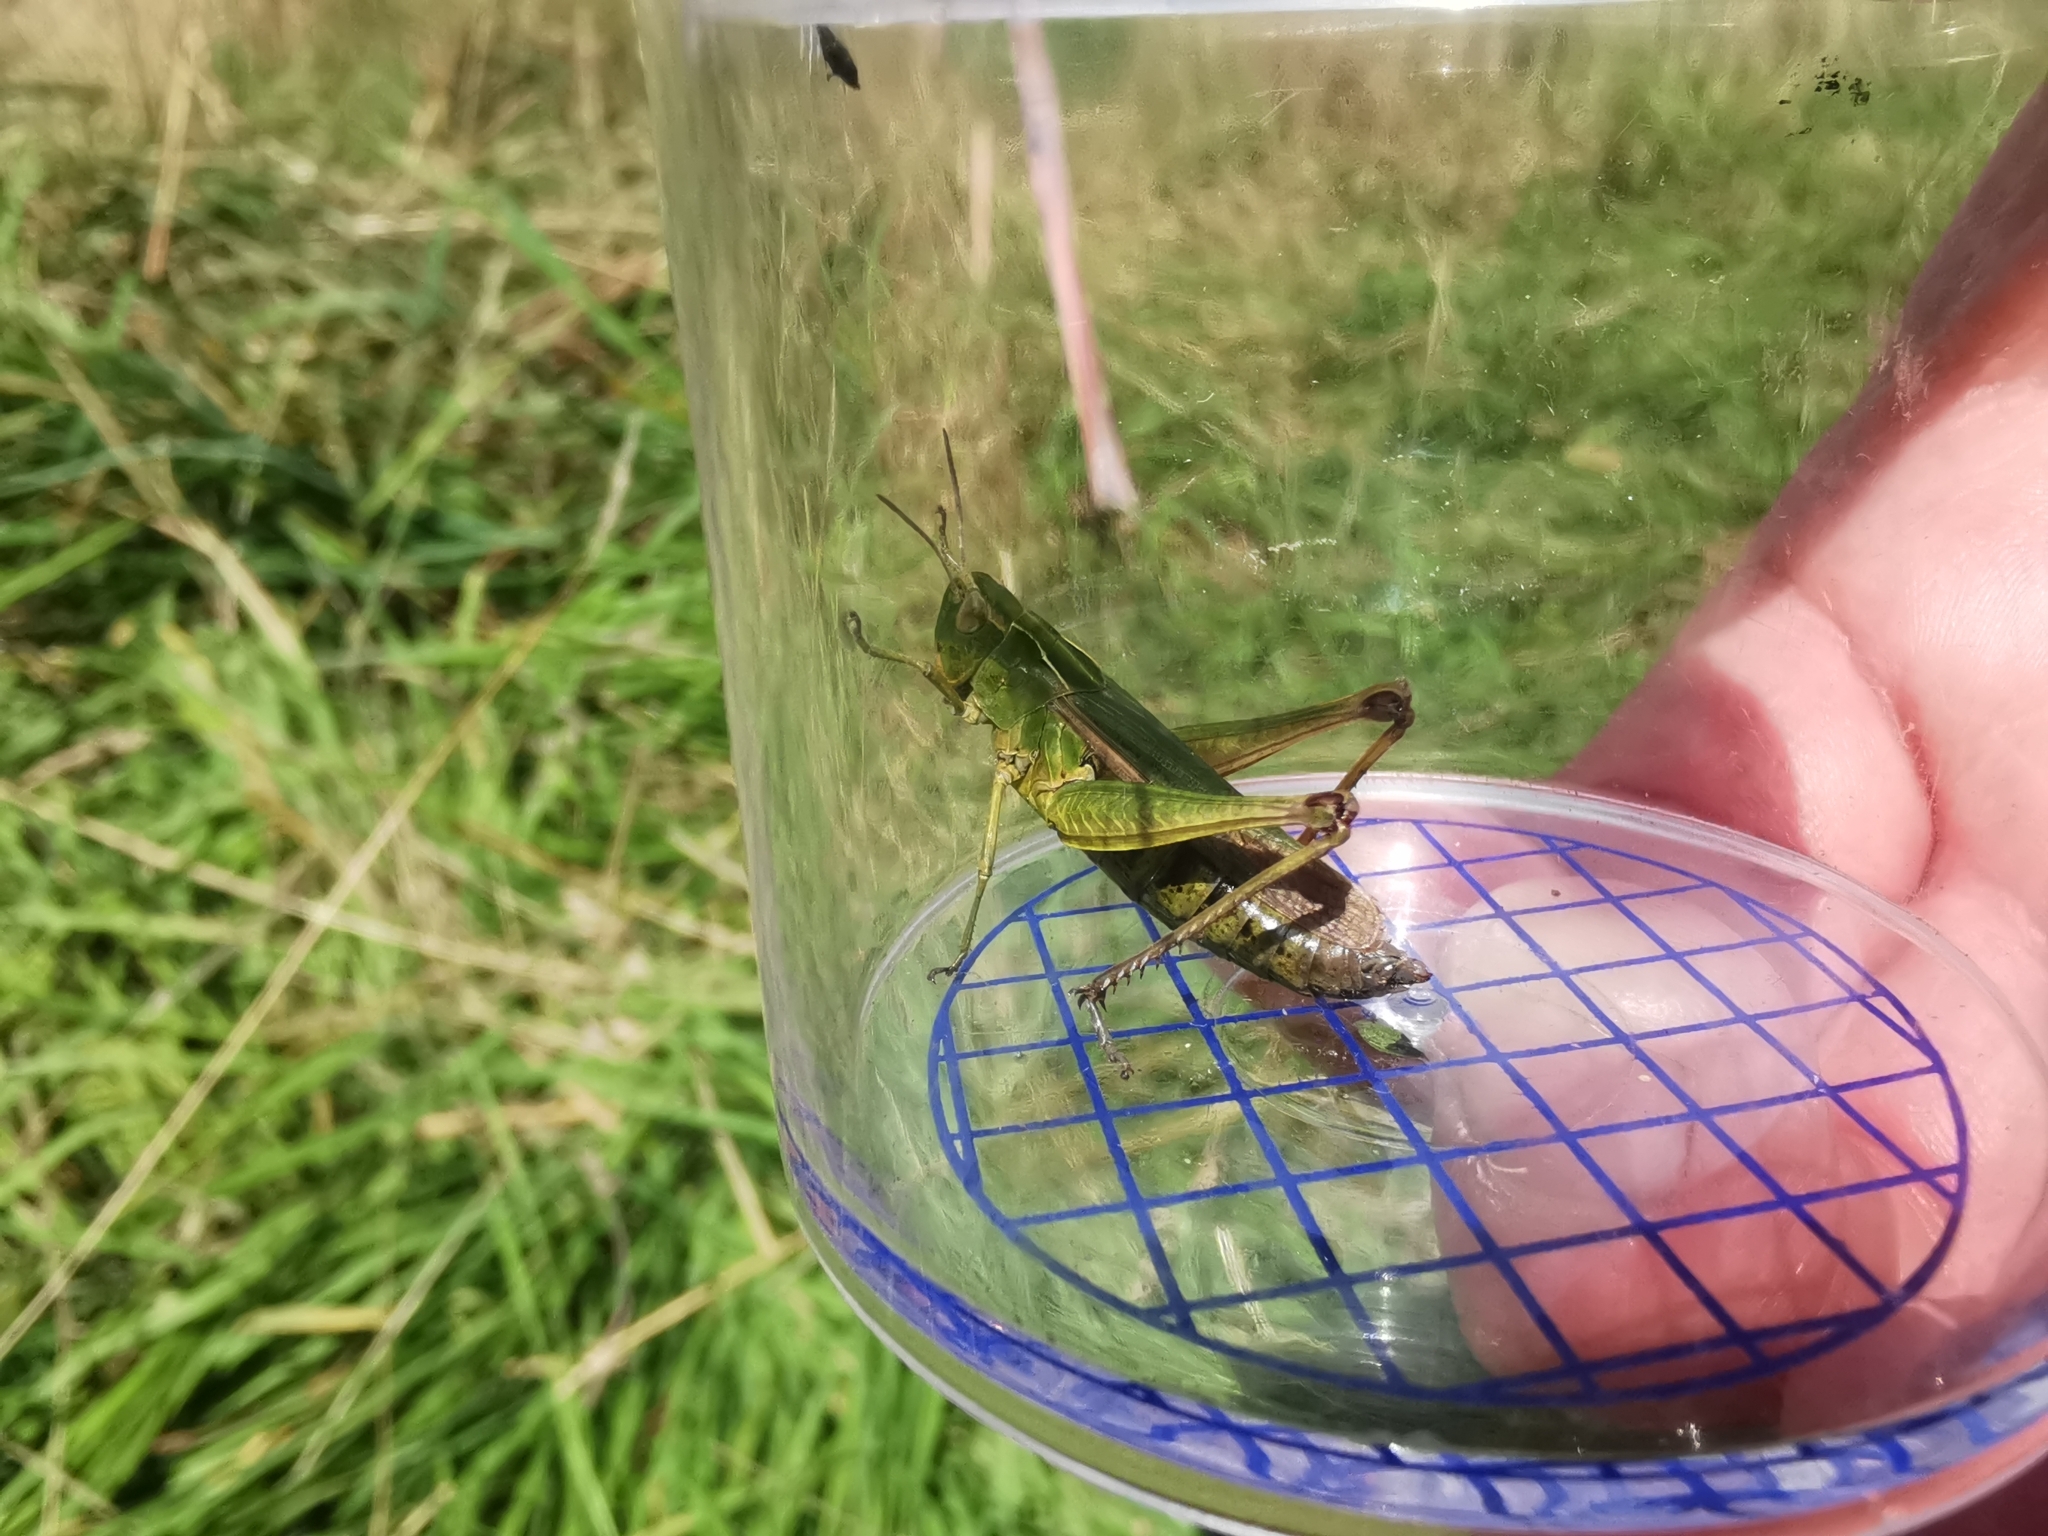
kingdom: Animalia
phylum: Arthropoda
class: Insecta
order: Orthoptera
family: Acrididae
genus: Omocestus
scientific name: Omocestus viridulus
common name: Common green grasshopper
